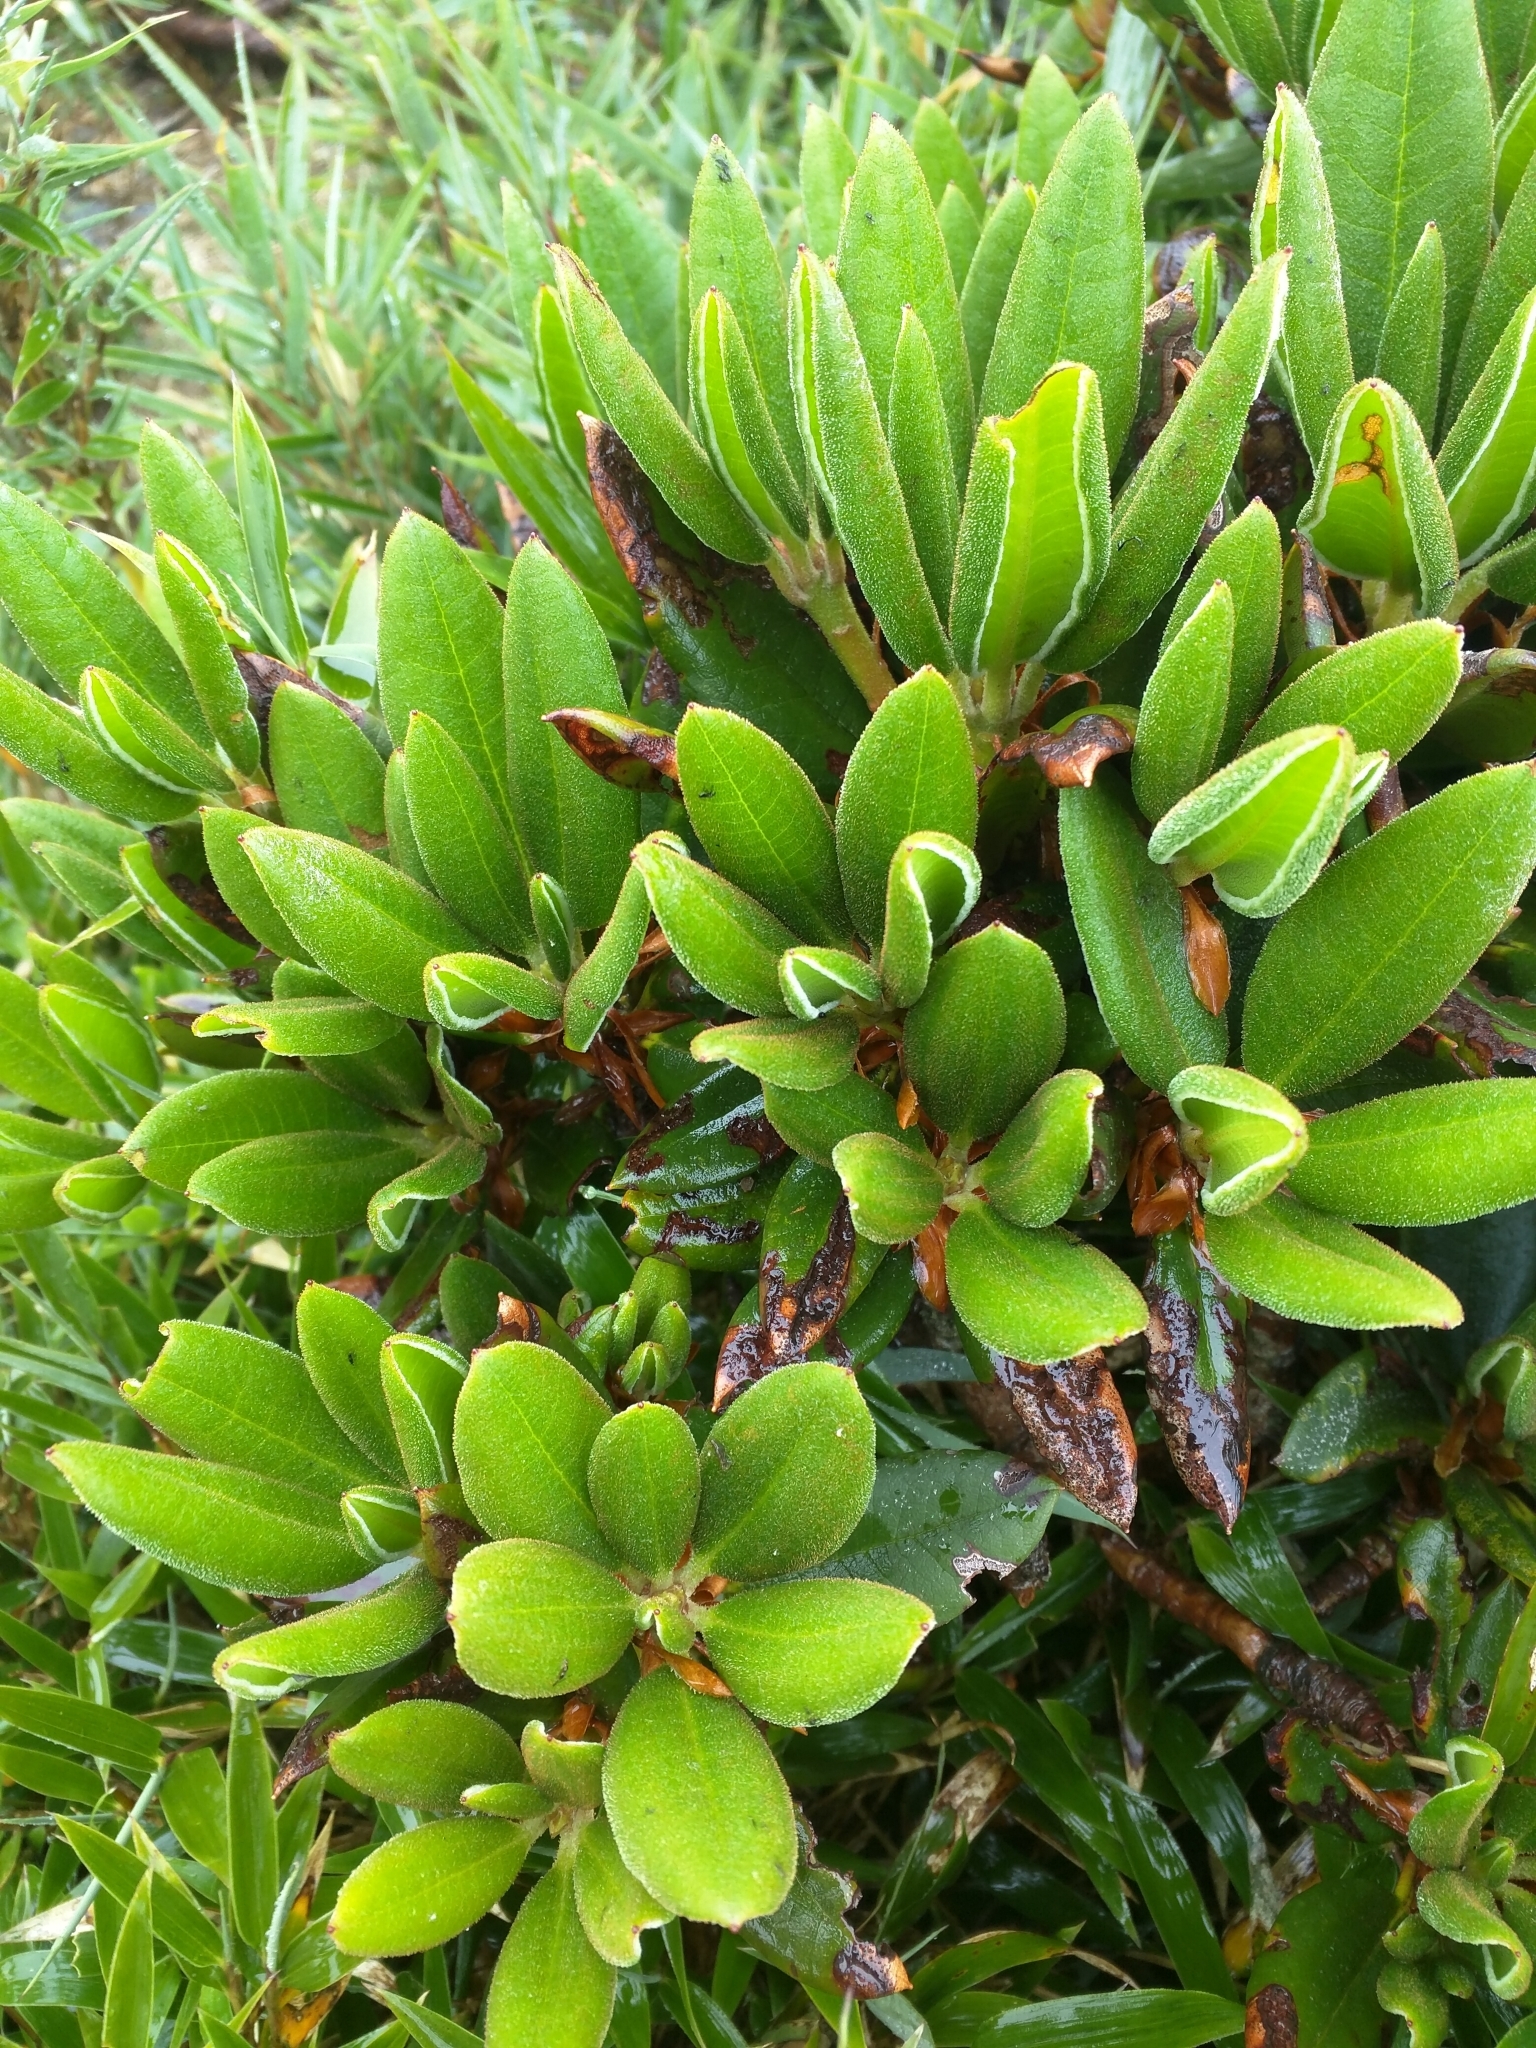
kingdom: Plantae
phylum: Tracheophyta
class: Magnoliopsida
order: Ericales
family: Ericaceae
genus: Rhododendron
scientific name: Rhododendron pseudochrysanthum
